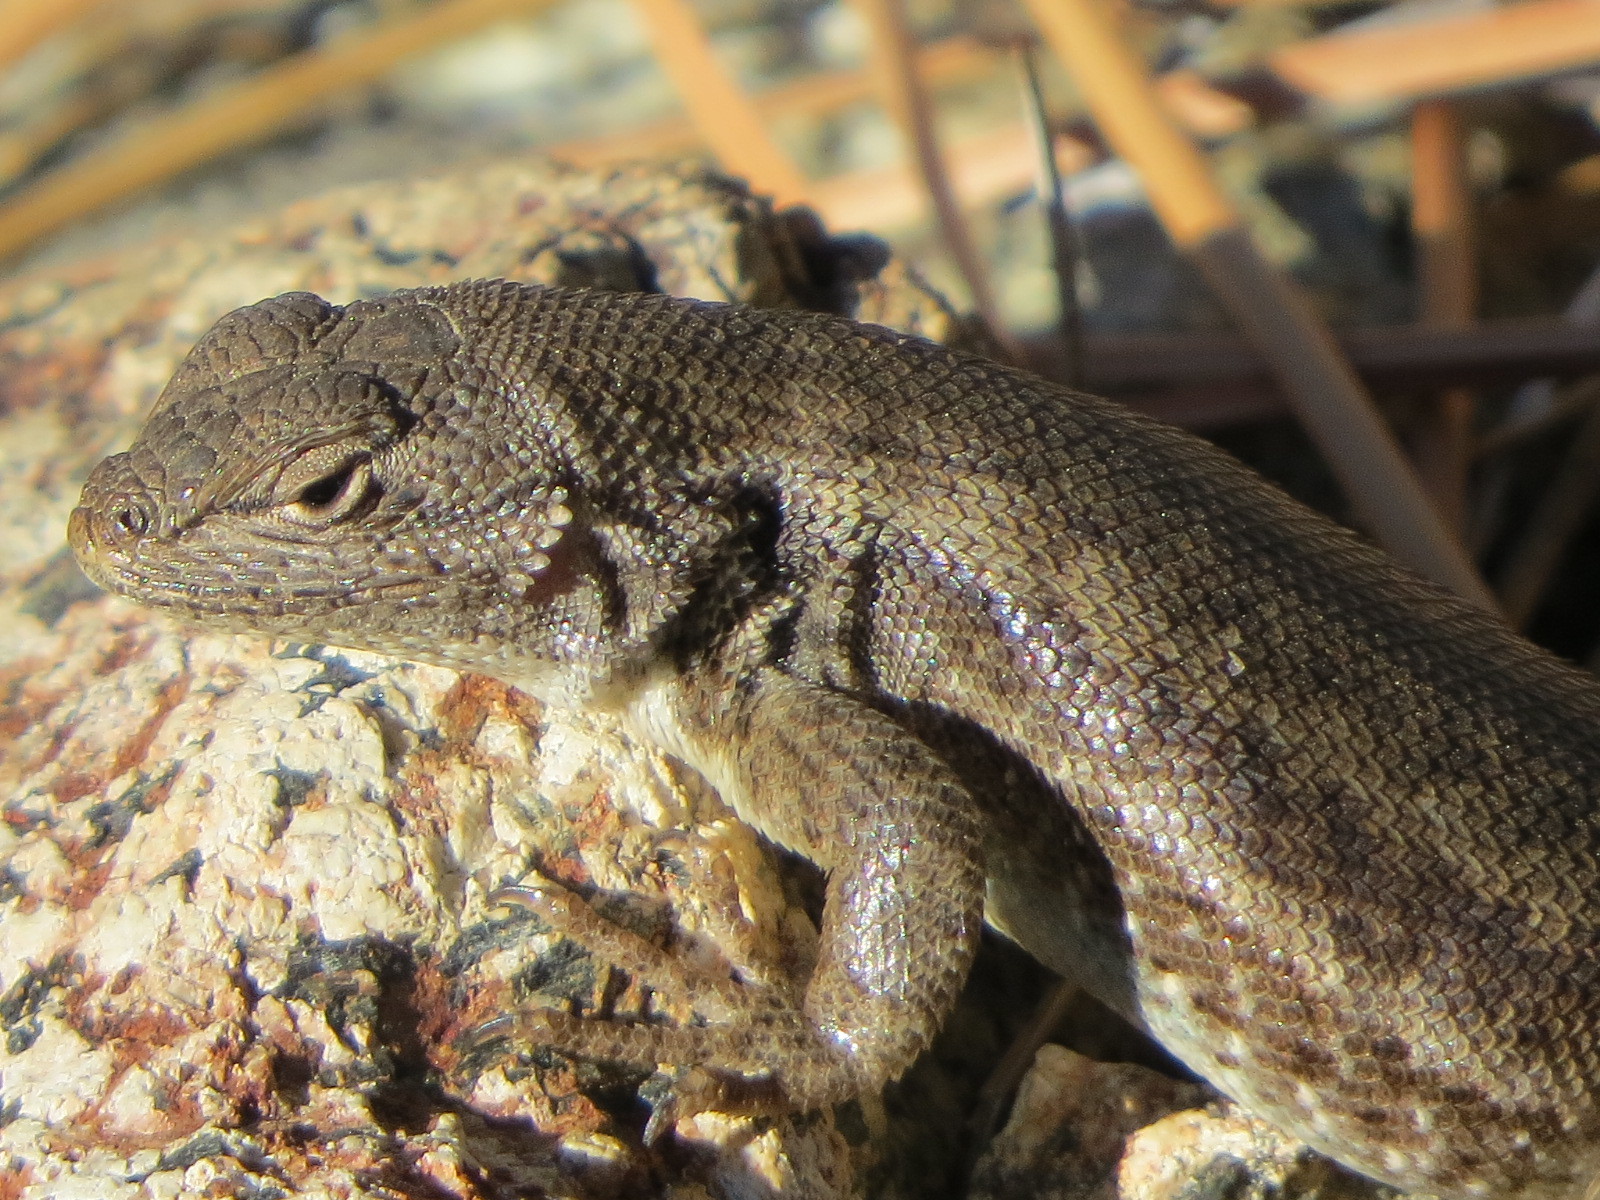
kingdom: Animalia
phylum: Chordata
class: Squamata
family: Phrynosomatidae
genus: Sceloporus
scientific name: Sceloporus graciosus
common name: Sagebrush lizard
